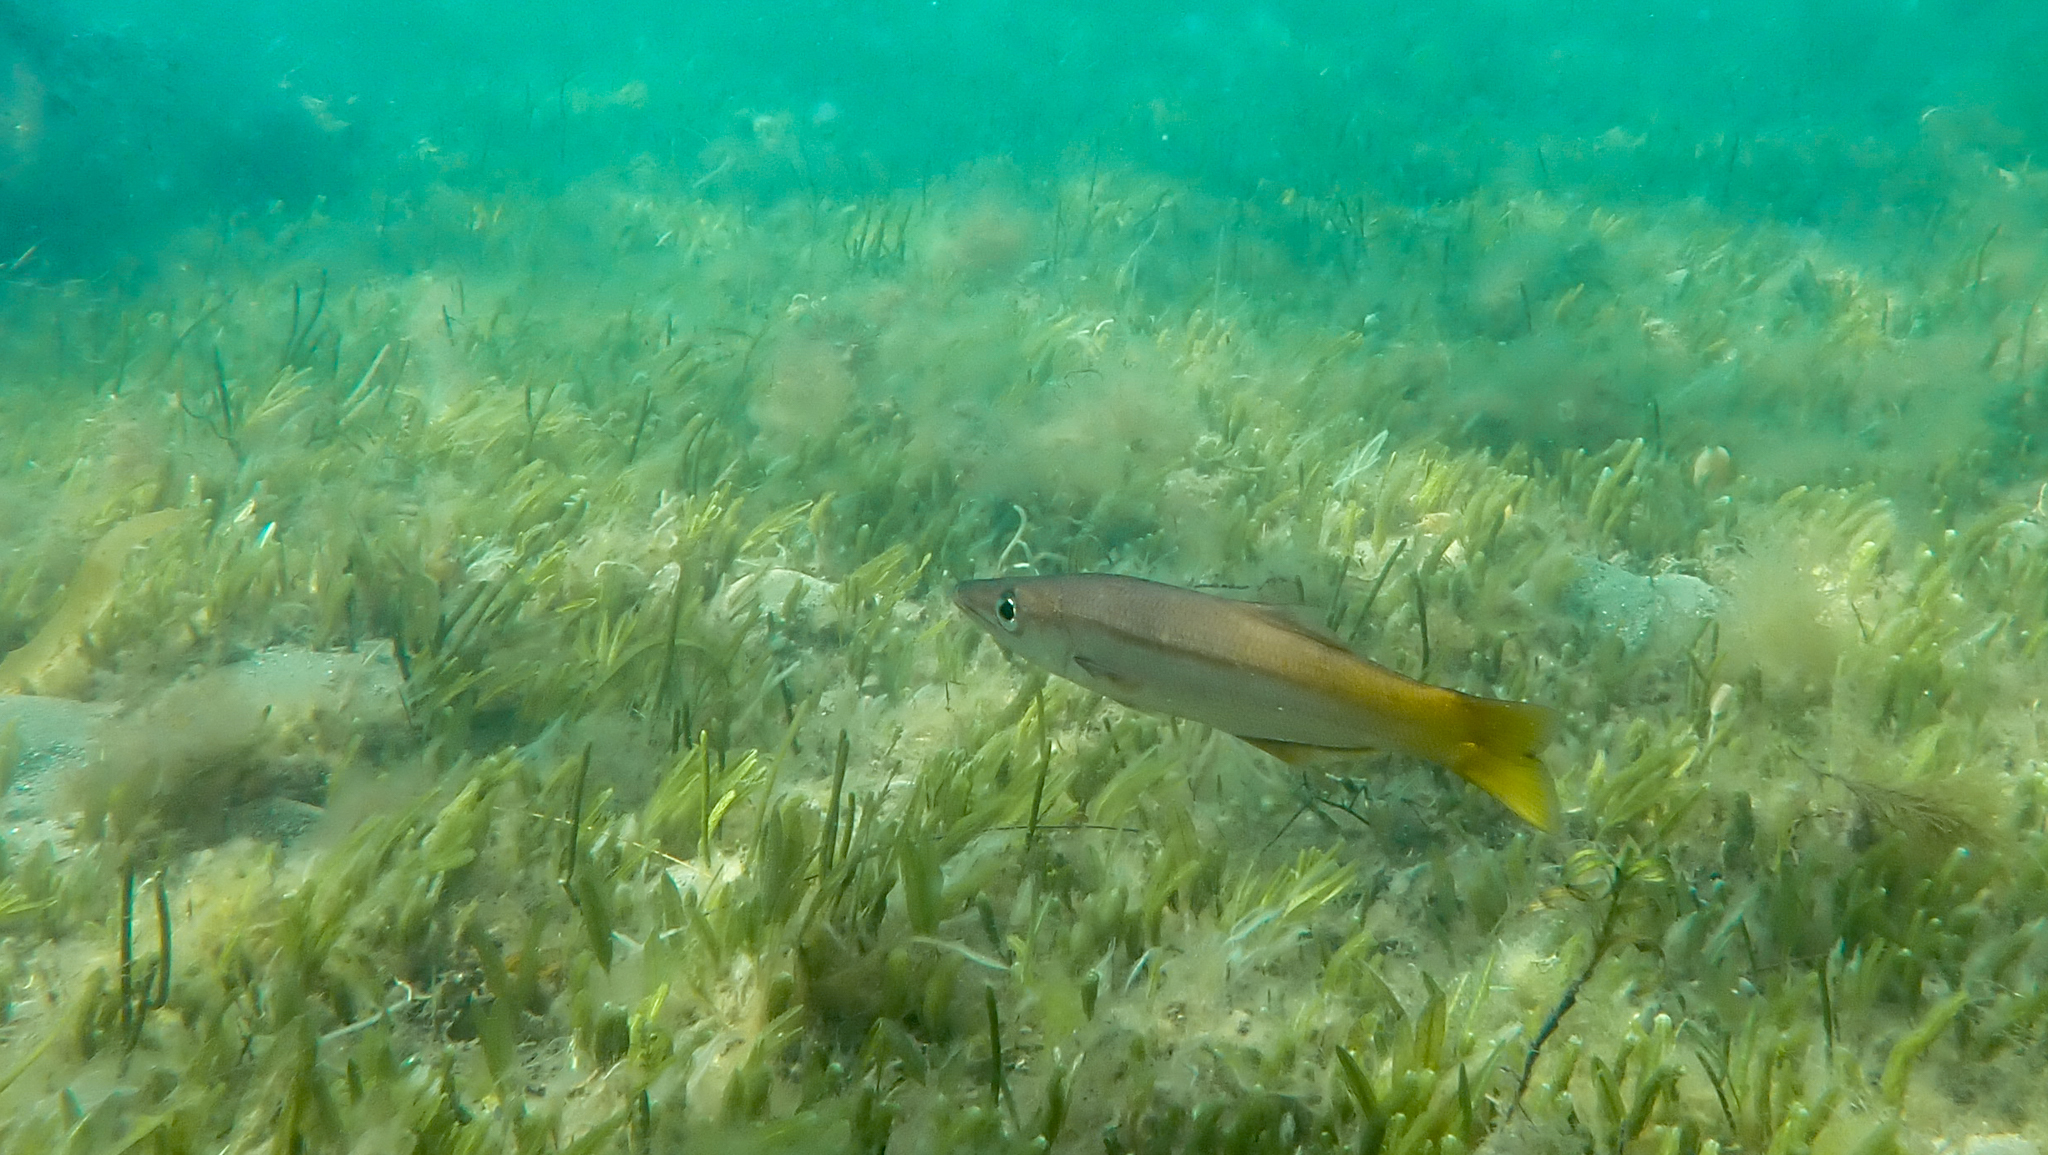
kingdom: Animalia
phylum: Chordata
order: Perciformes
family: Dinolestidae
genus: Dinolestes
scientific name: Dinolestes lewini
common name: Jack pike
